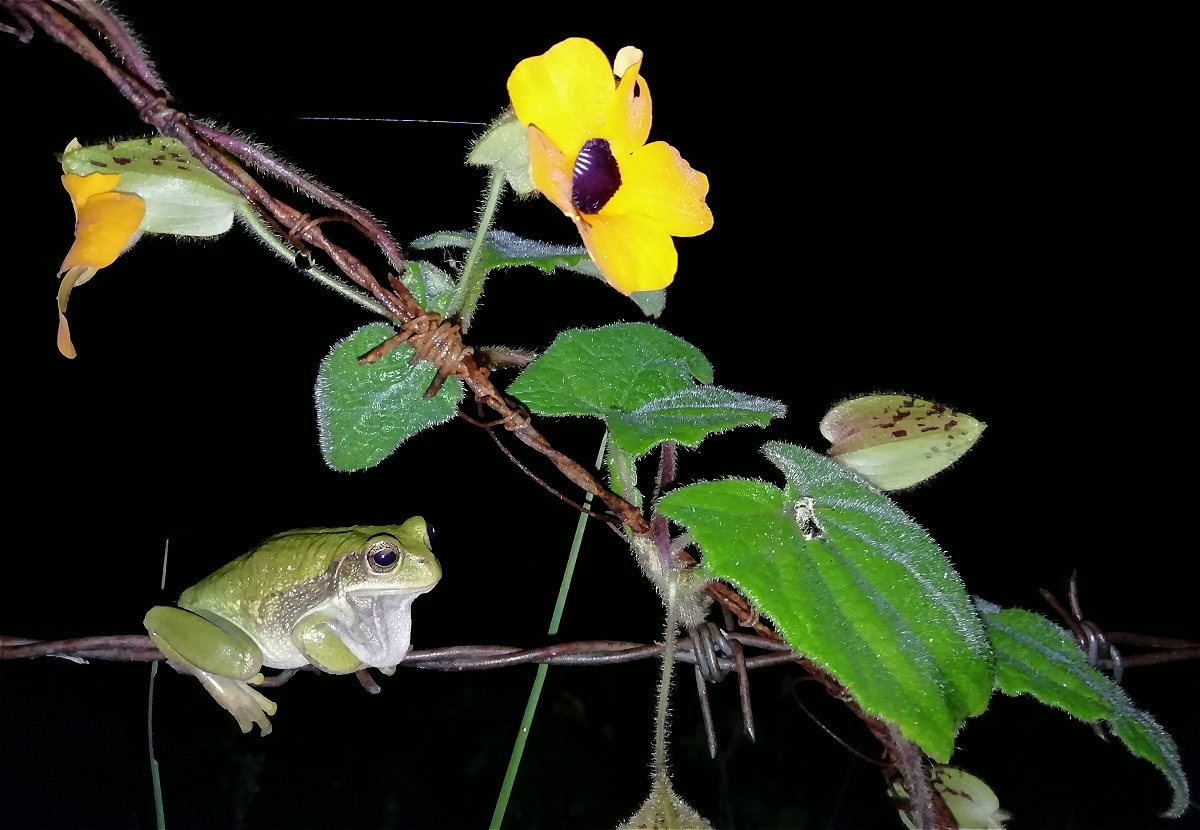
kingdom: Animalia
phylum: Chordata
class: Amphibia
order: Anura
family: Hemiphractidae
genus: Gastrotheca
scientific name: Gastrotheca cuencana
